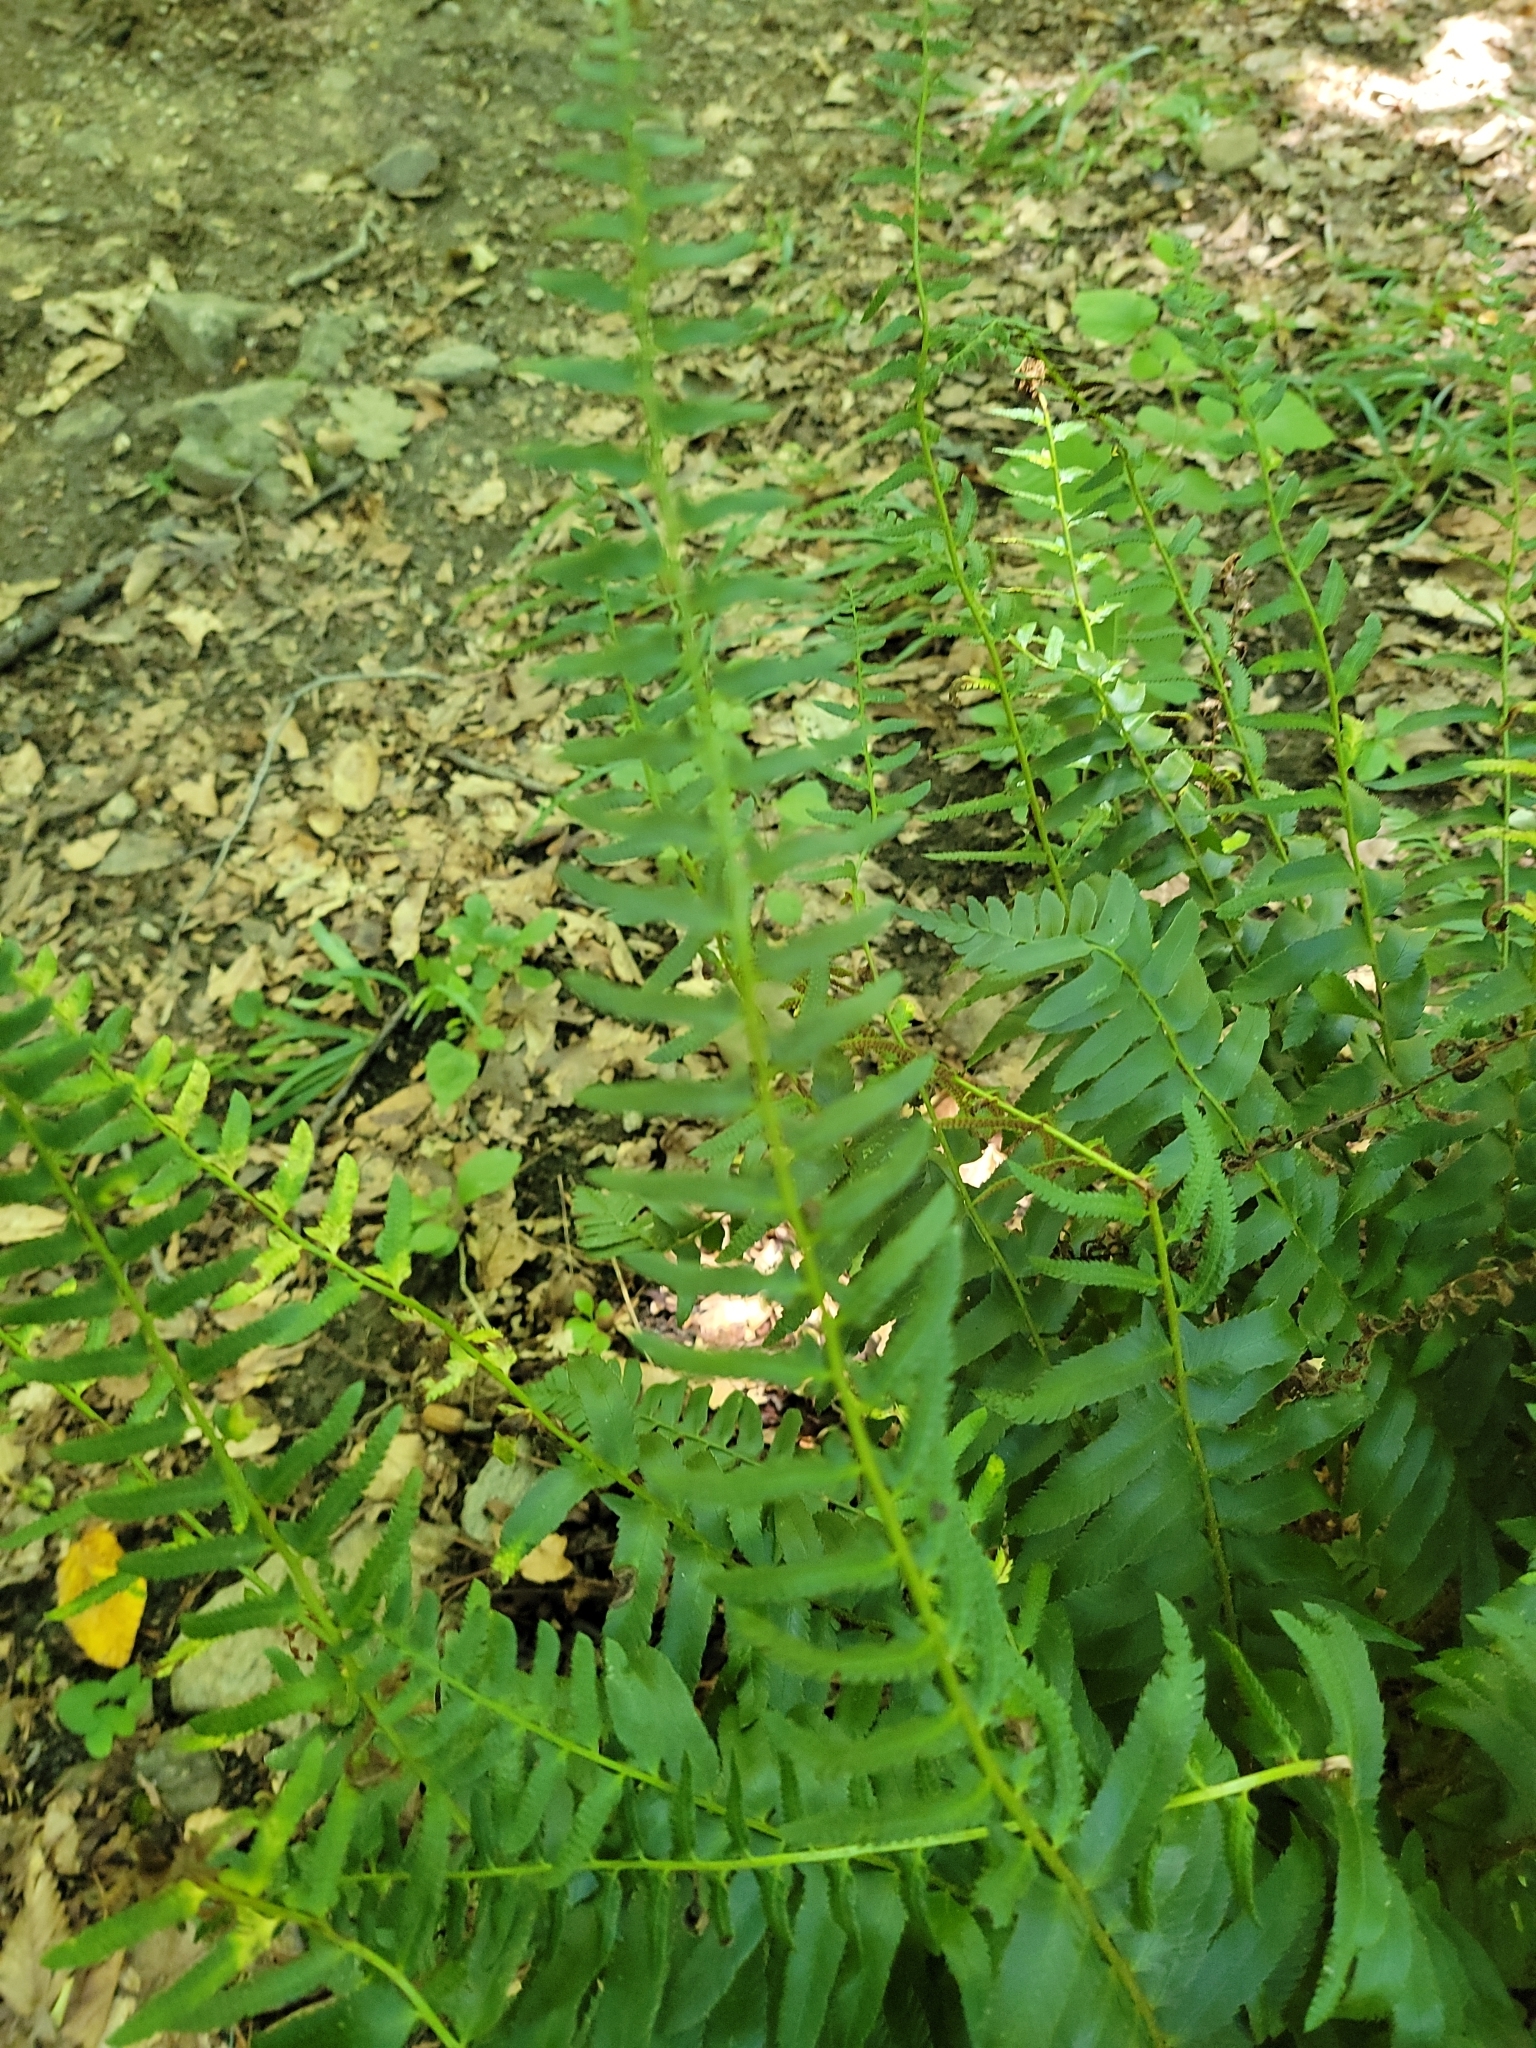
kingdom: Plantae
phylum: Tracheophyta
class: Polypodiopsida
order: Polypodiales
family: Dryopteridaceae
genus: Polystichum
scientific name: Polystichum acrostichoides
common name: Christmas fern
